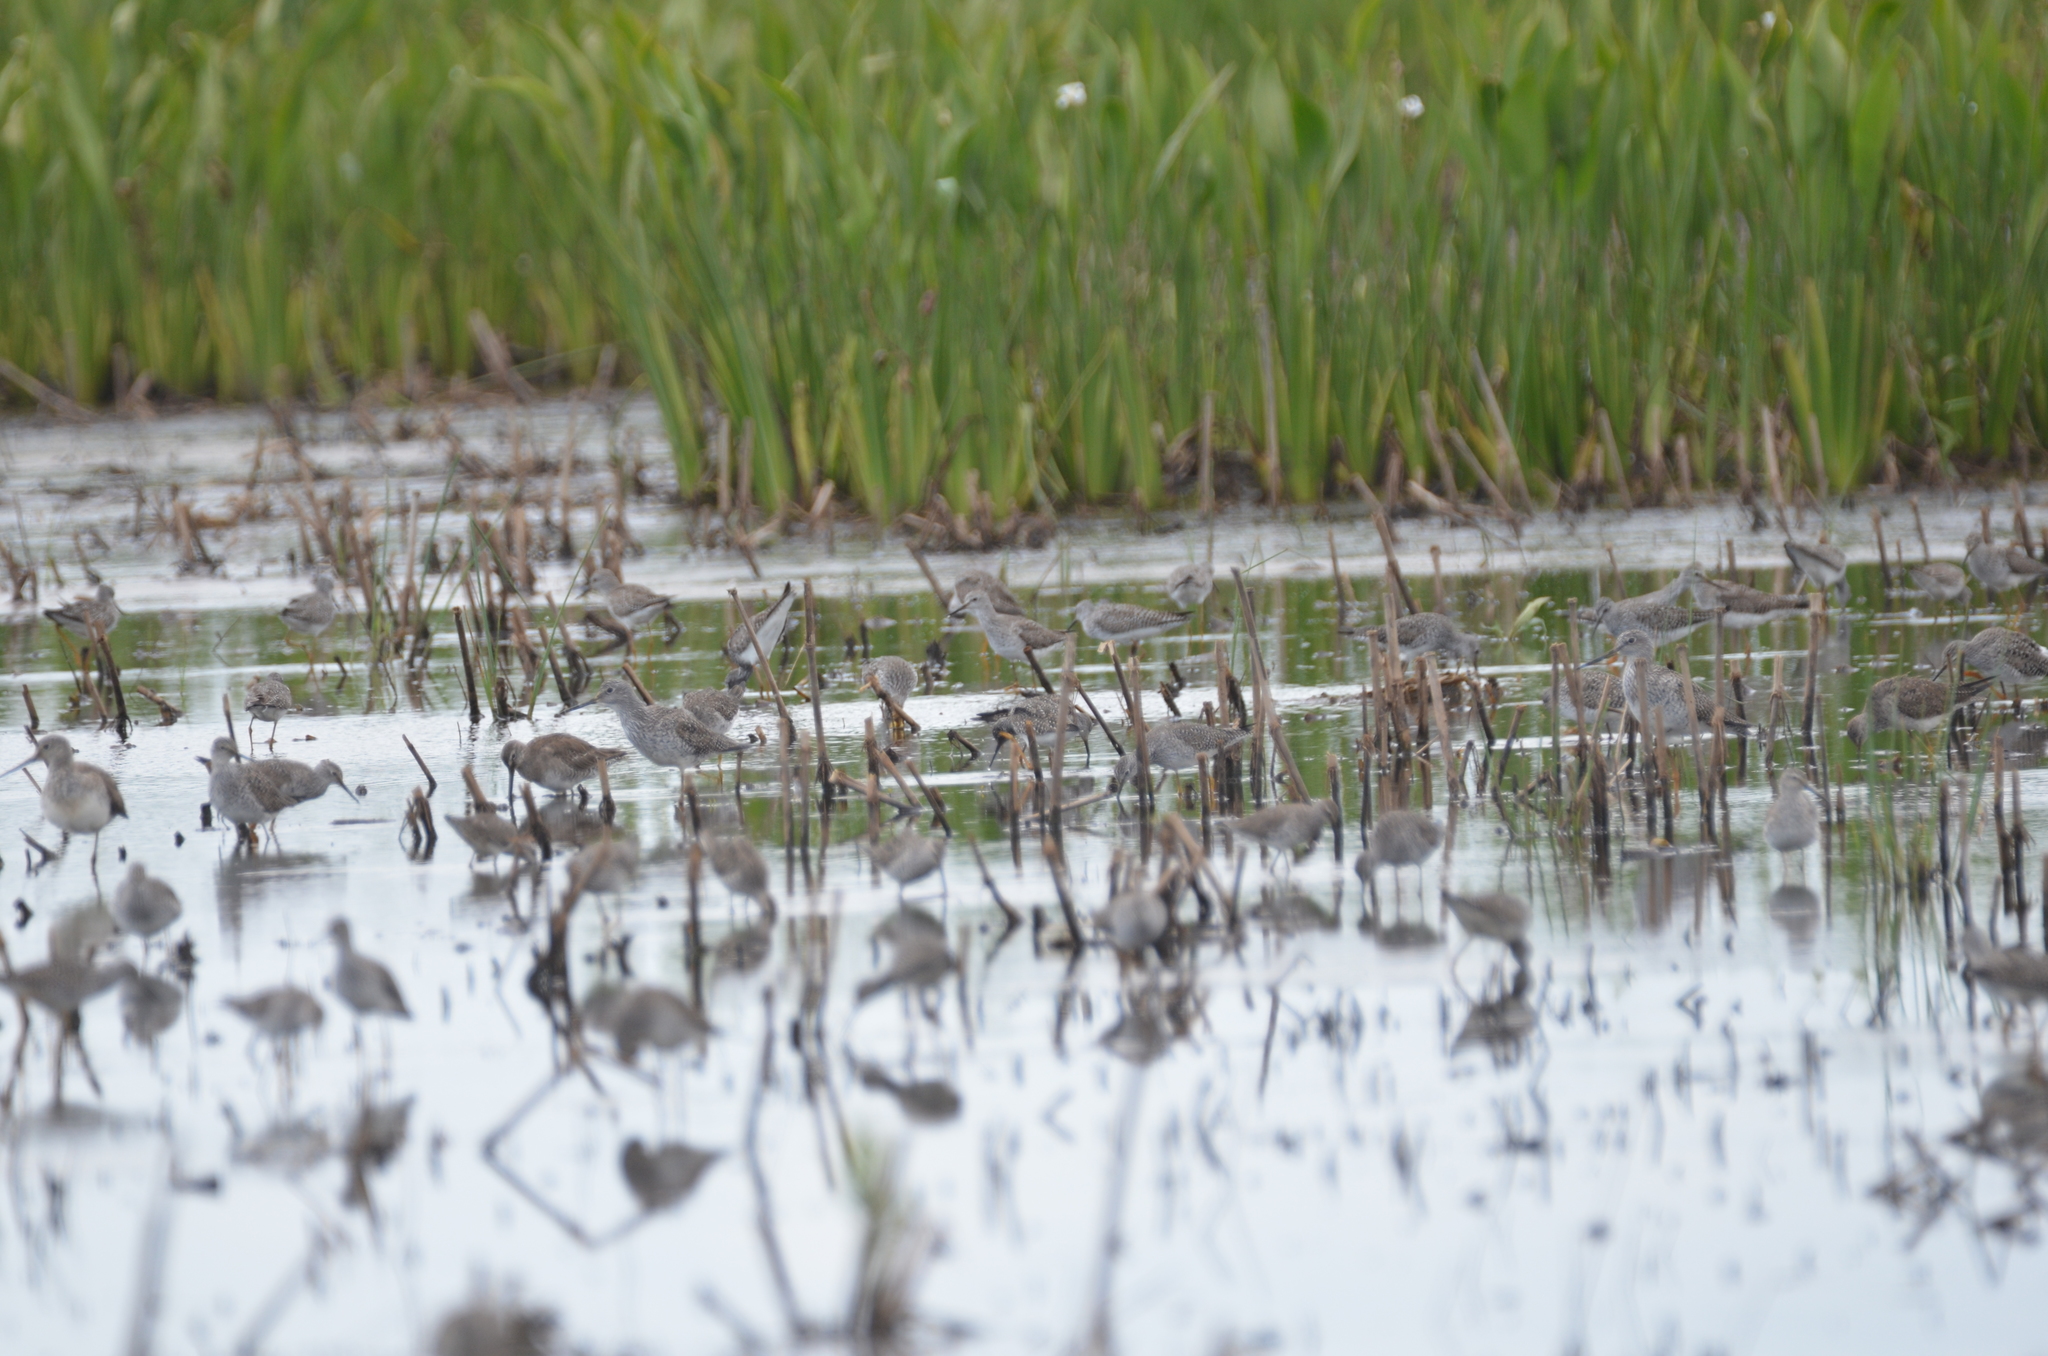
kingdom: Animalia
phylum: Chordata
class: Aves
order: Charadriiformes
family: Scolopacidae
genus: Tringa
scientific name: Tringa melanoleuca
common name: Greater yellowlegs
